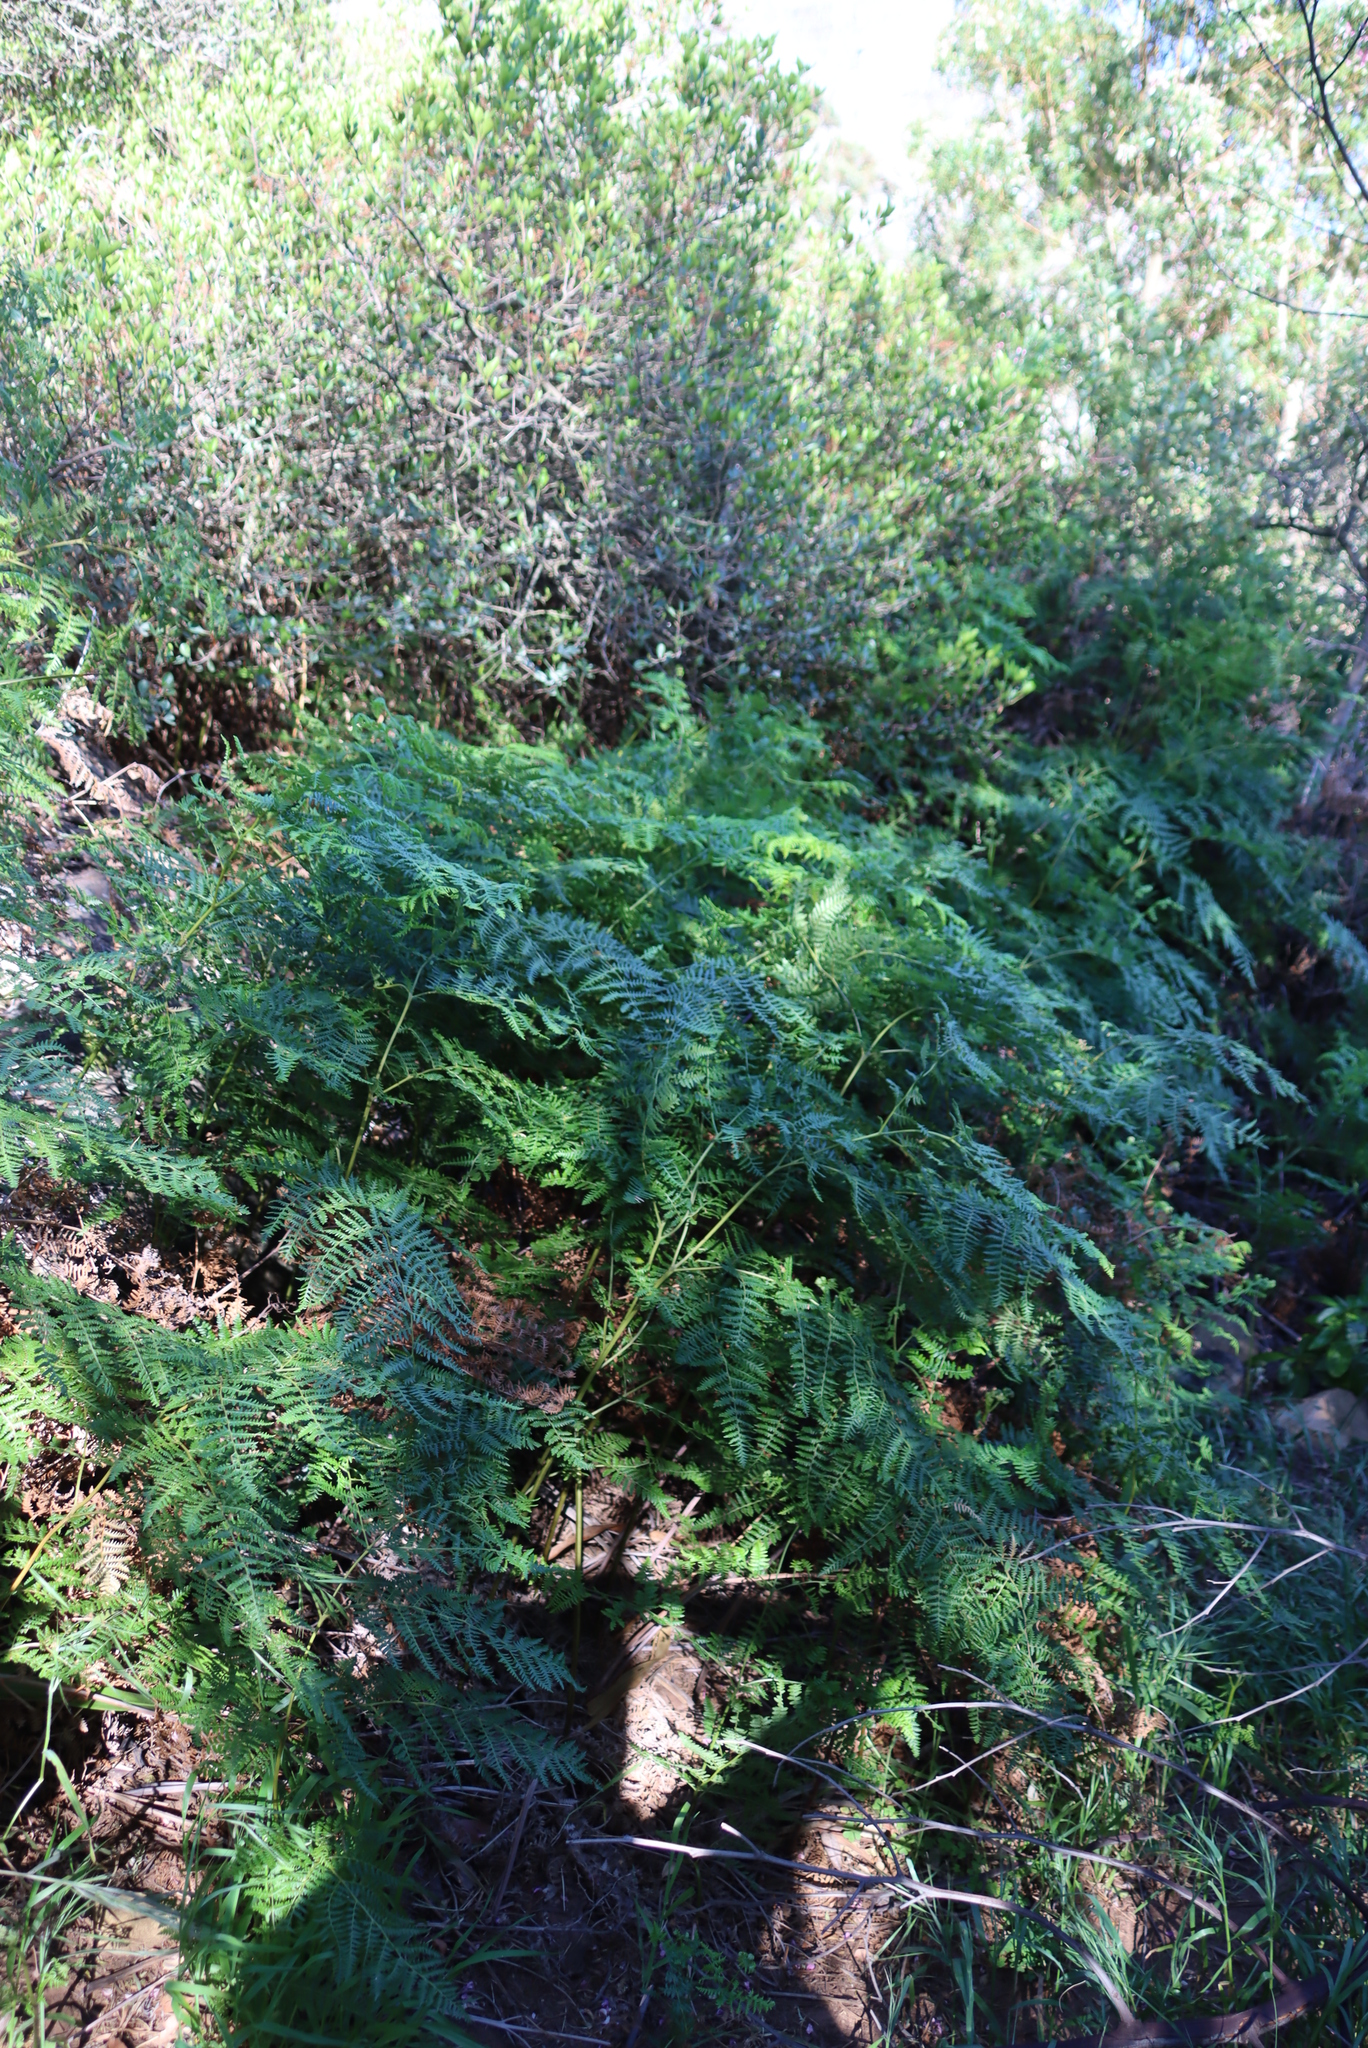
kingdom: Plantae
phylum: Tracheophyta
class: Polypodiopsida
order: Polypodiales
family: Dennstaedtiaceae
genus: Pteridium
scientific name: Pteridium aquilinum
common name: Bracken
